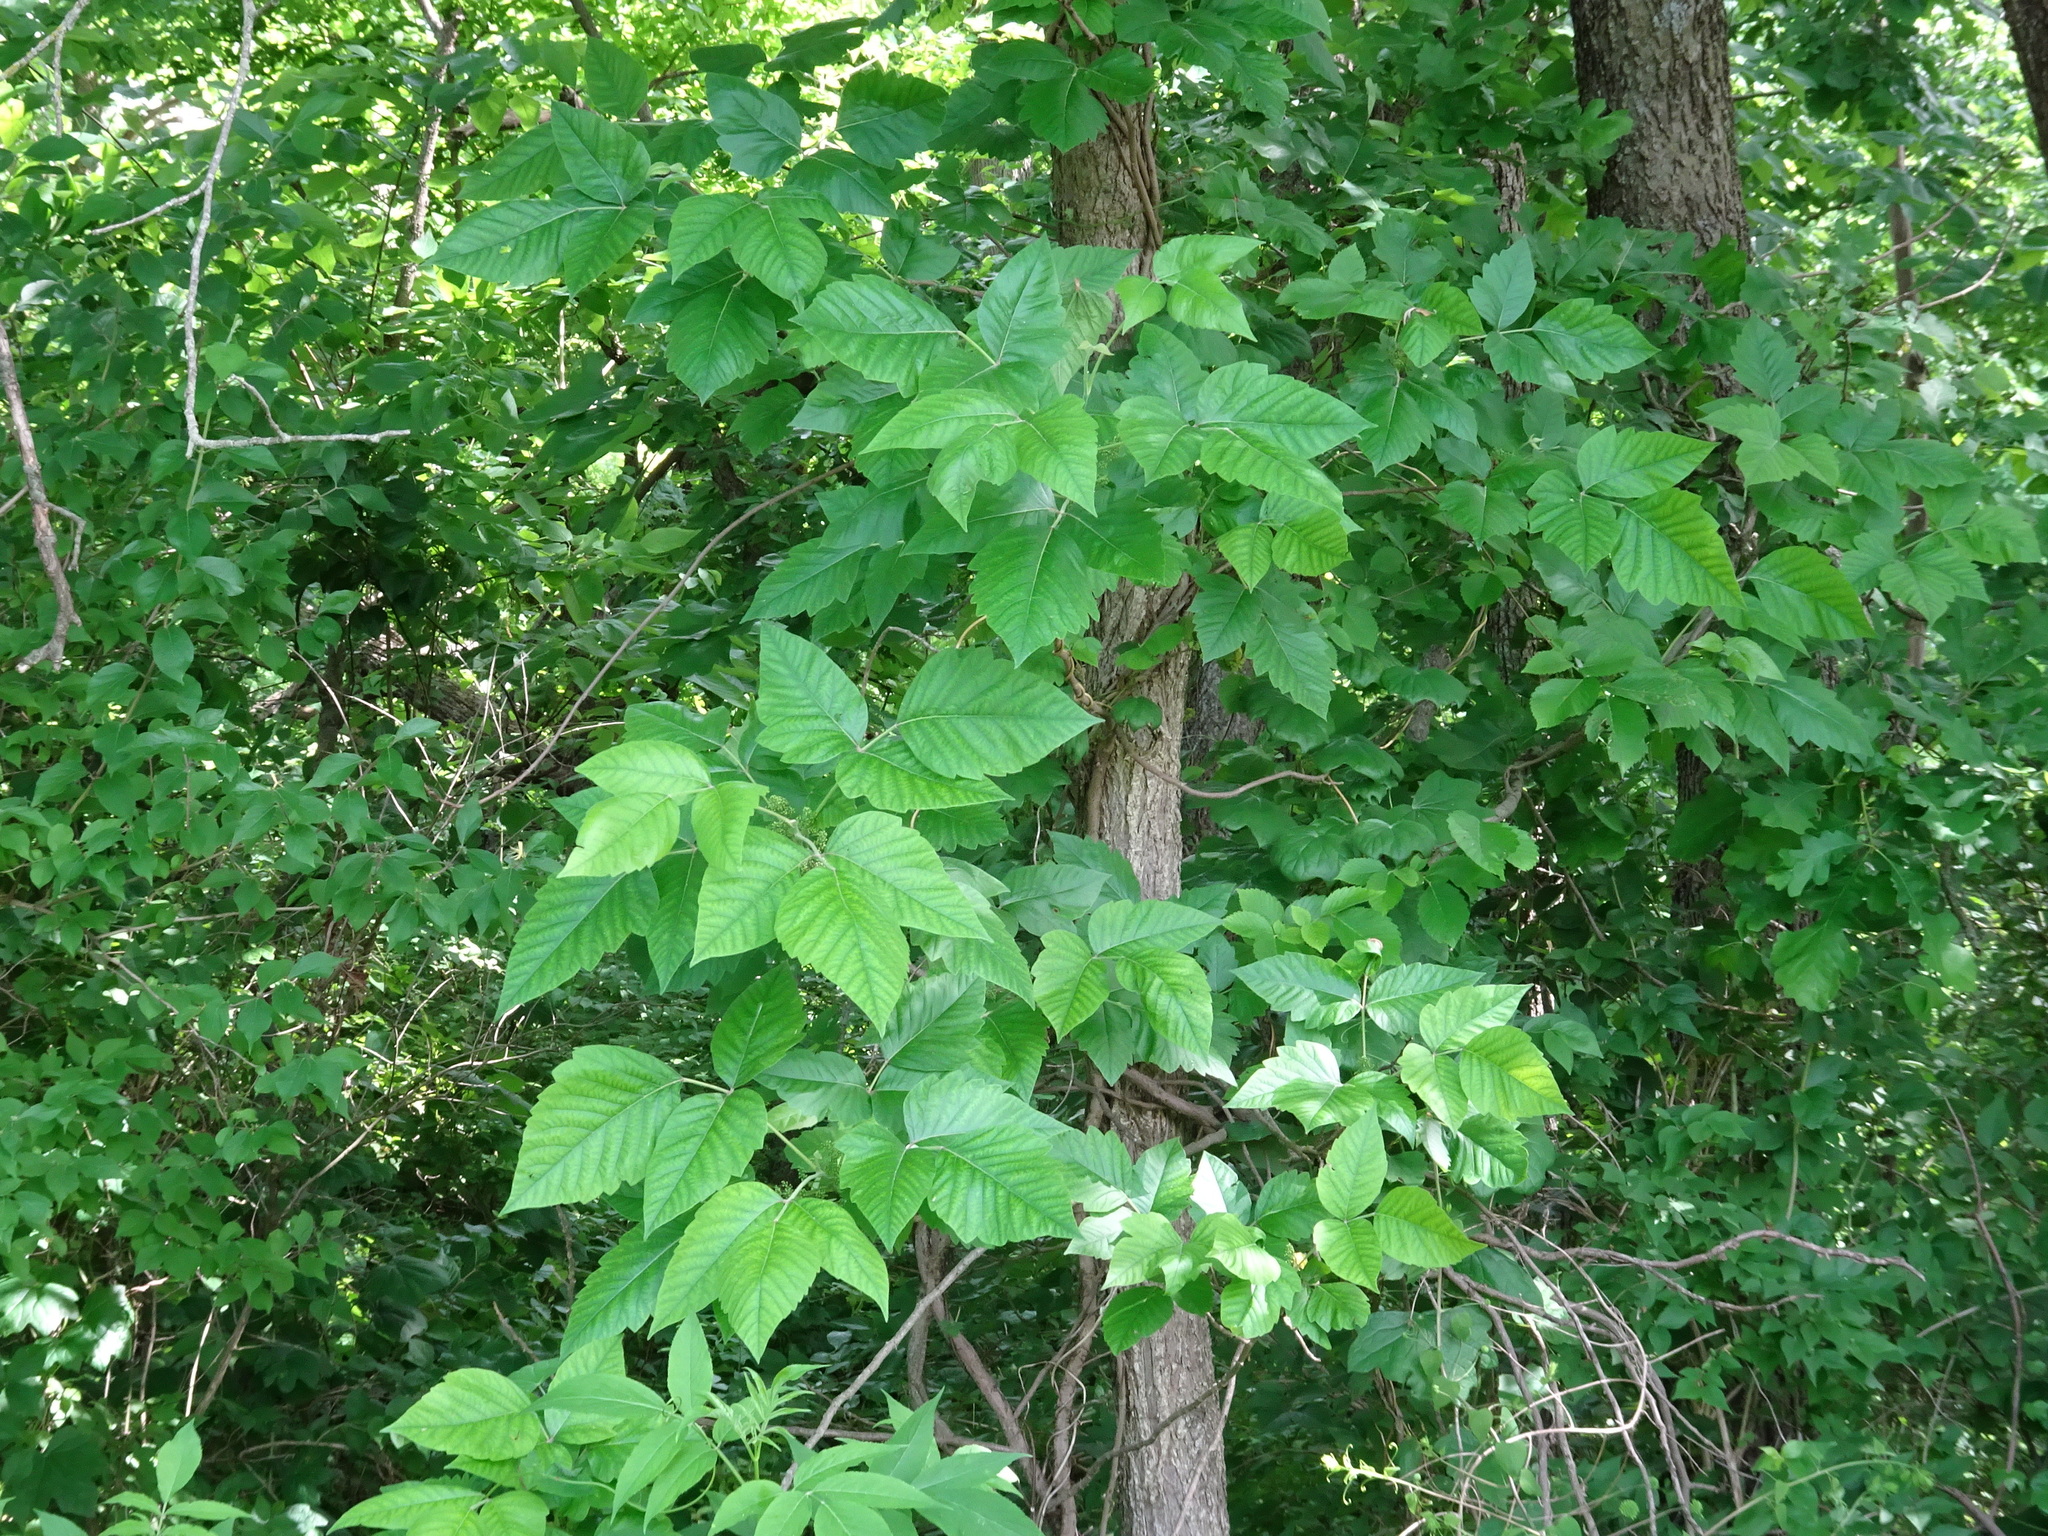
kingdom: Plantae
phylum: Tracheophyta
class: Magnoliopsida
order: Sapindales
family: Anacardiaceae
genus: Toxicodendron
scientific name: Toxicodendron radicans
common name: Poison ivy
